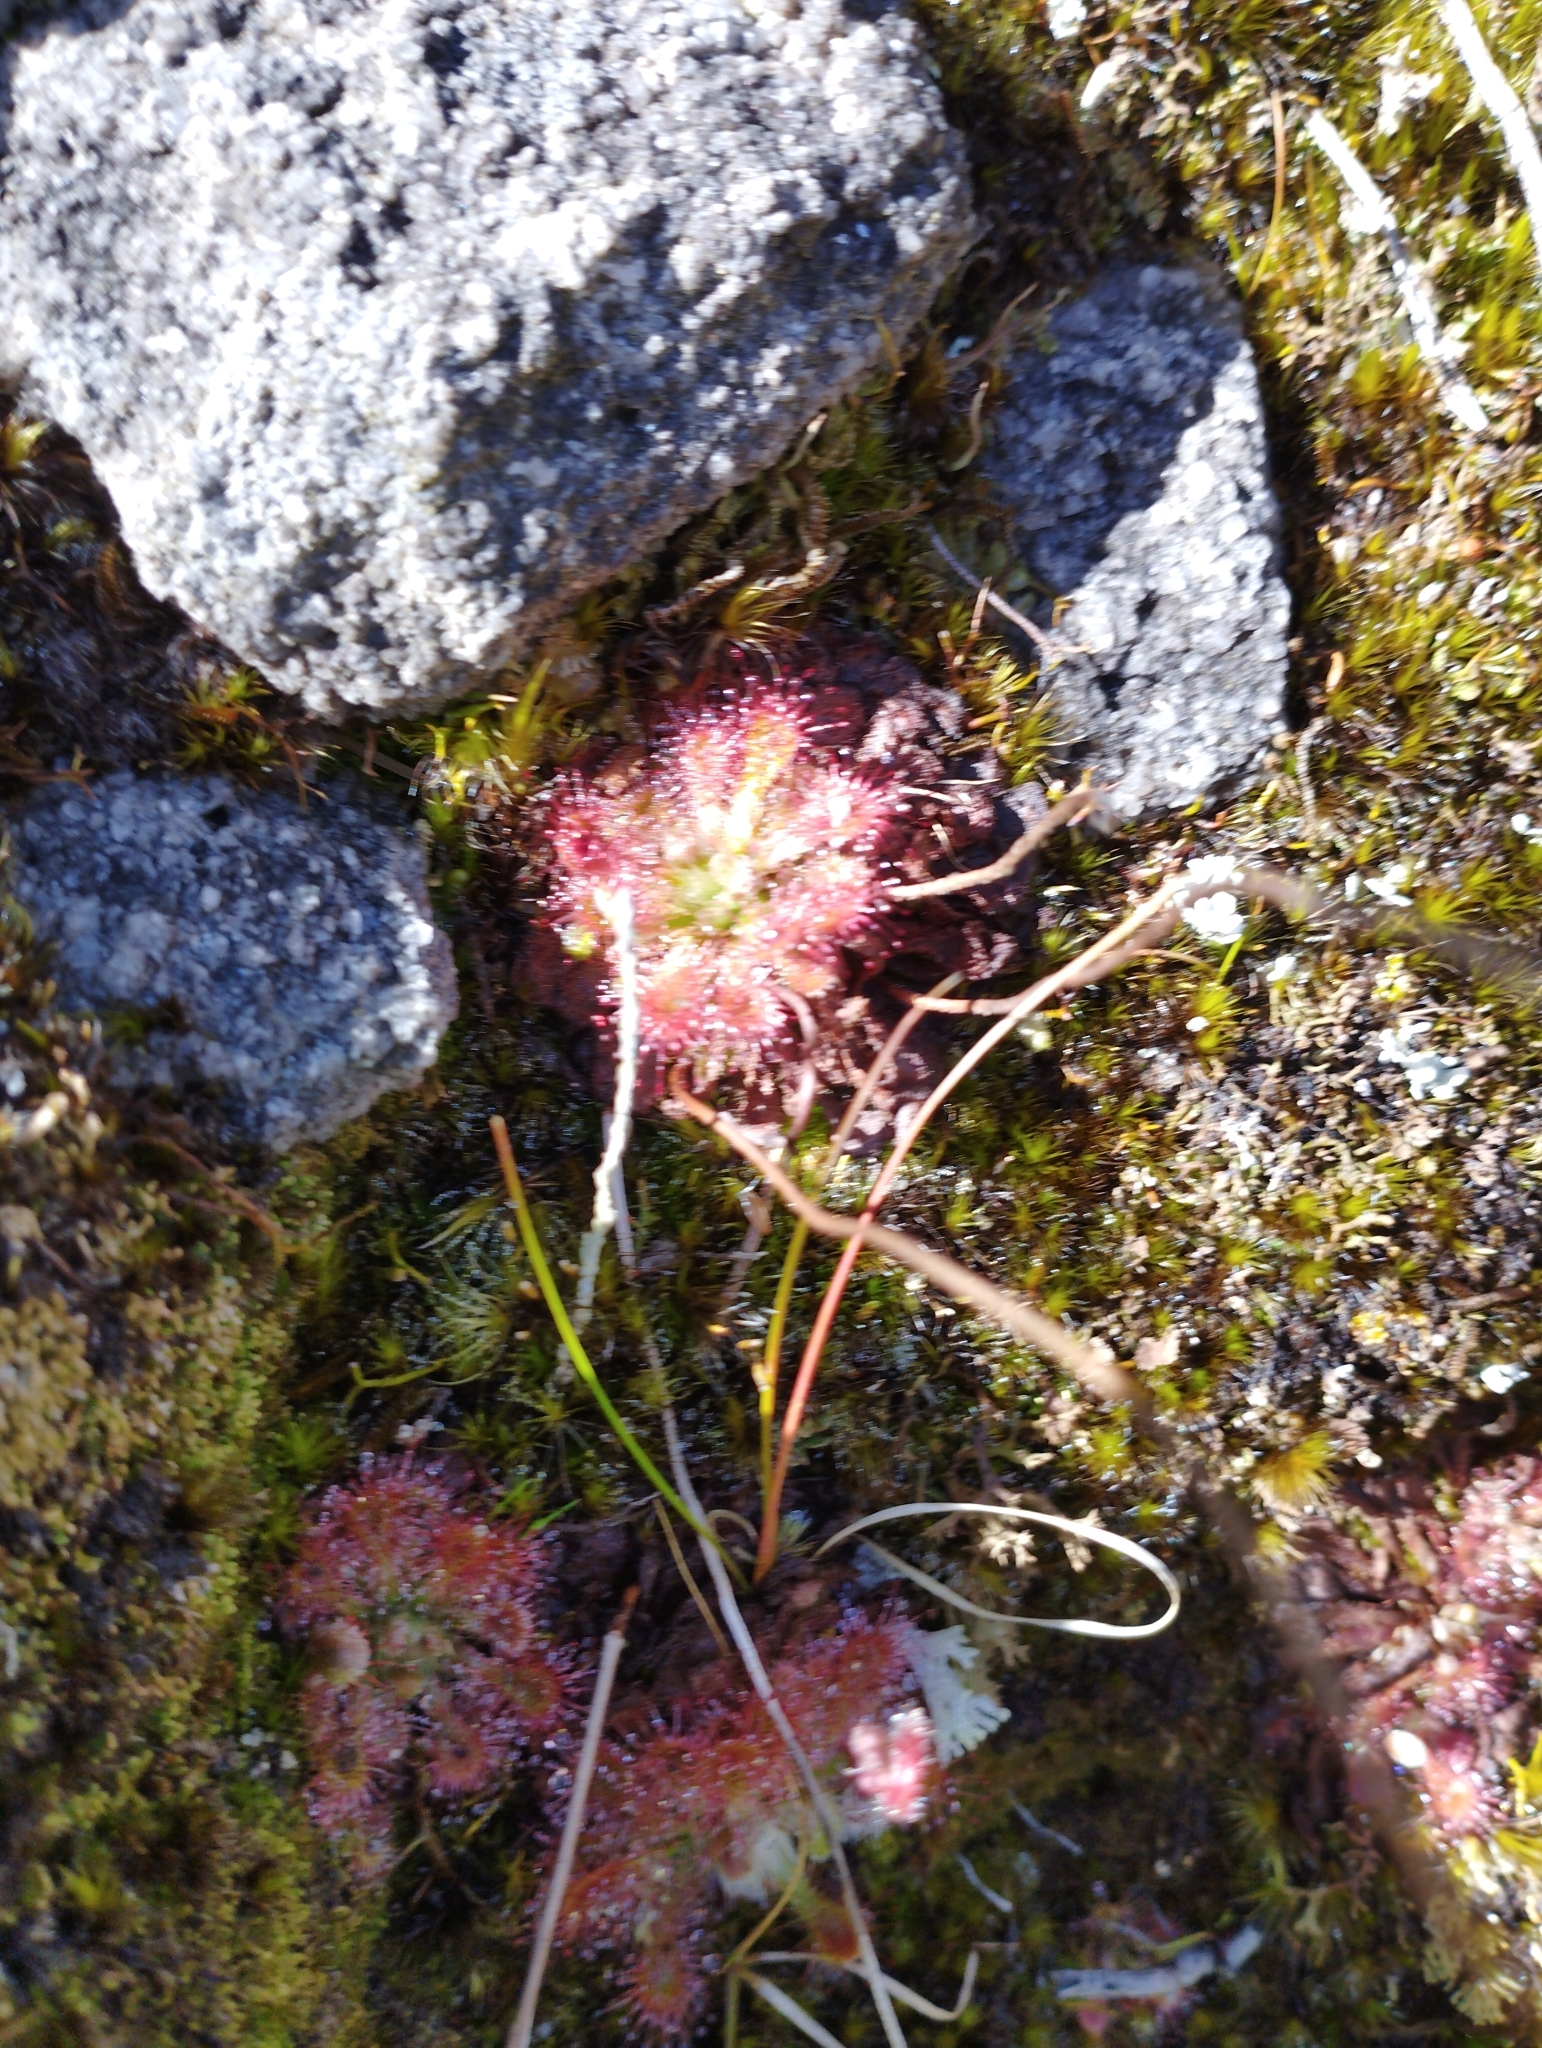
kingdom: Plantae
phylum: Tracheophyta
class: Magnoliopsida
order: Caryophyllales
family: Droseraceae
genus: Drosera
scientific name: Drosera spatulata
